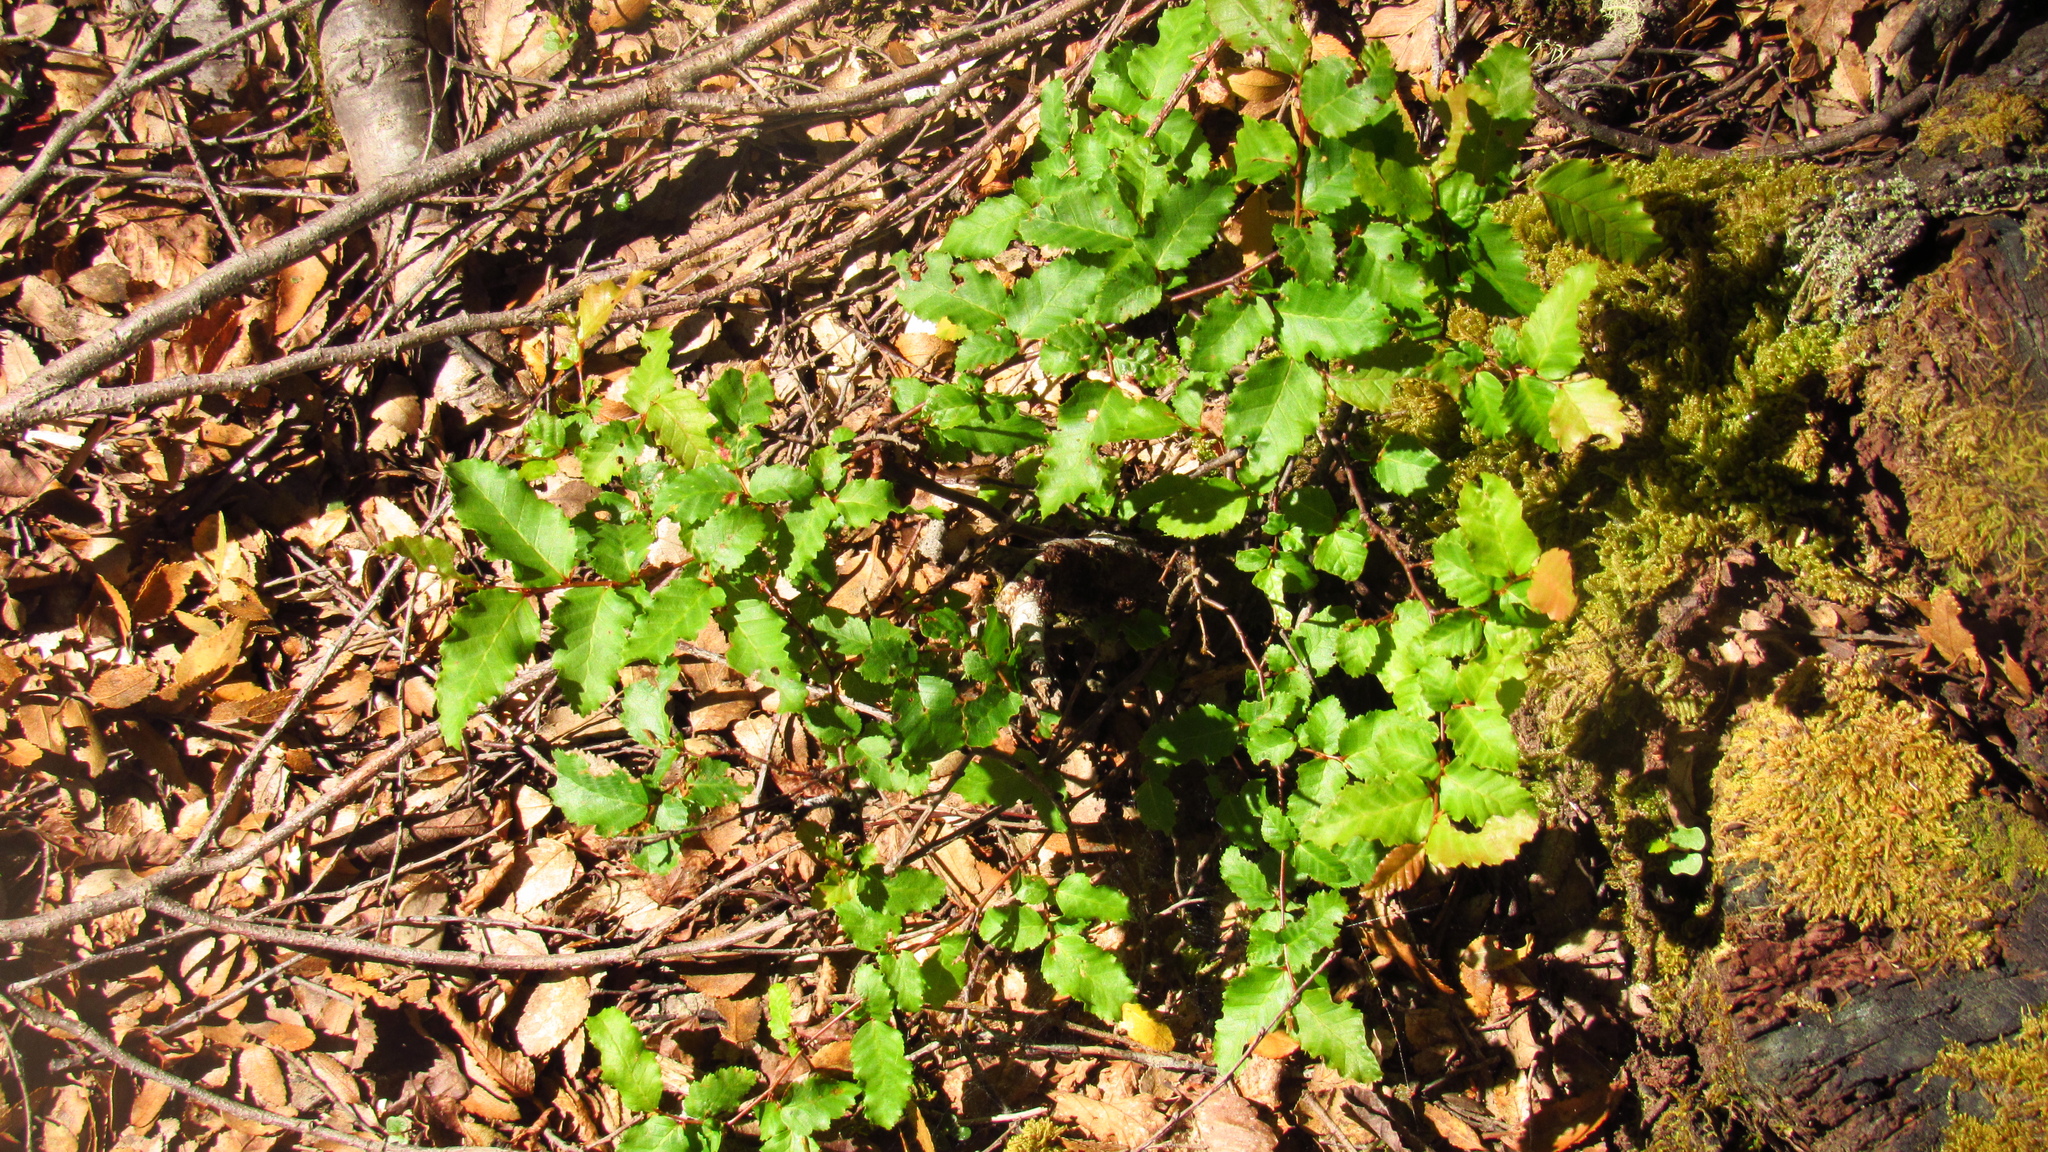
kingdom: Plantae
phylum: Tracheophyta
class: Magnoliopsida
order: Fagales
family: Nothofagaceae
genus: Nothofagus
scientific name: Nothofagus obliqua
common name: Roble beech
